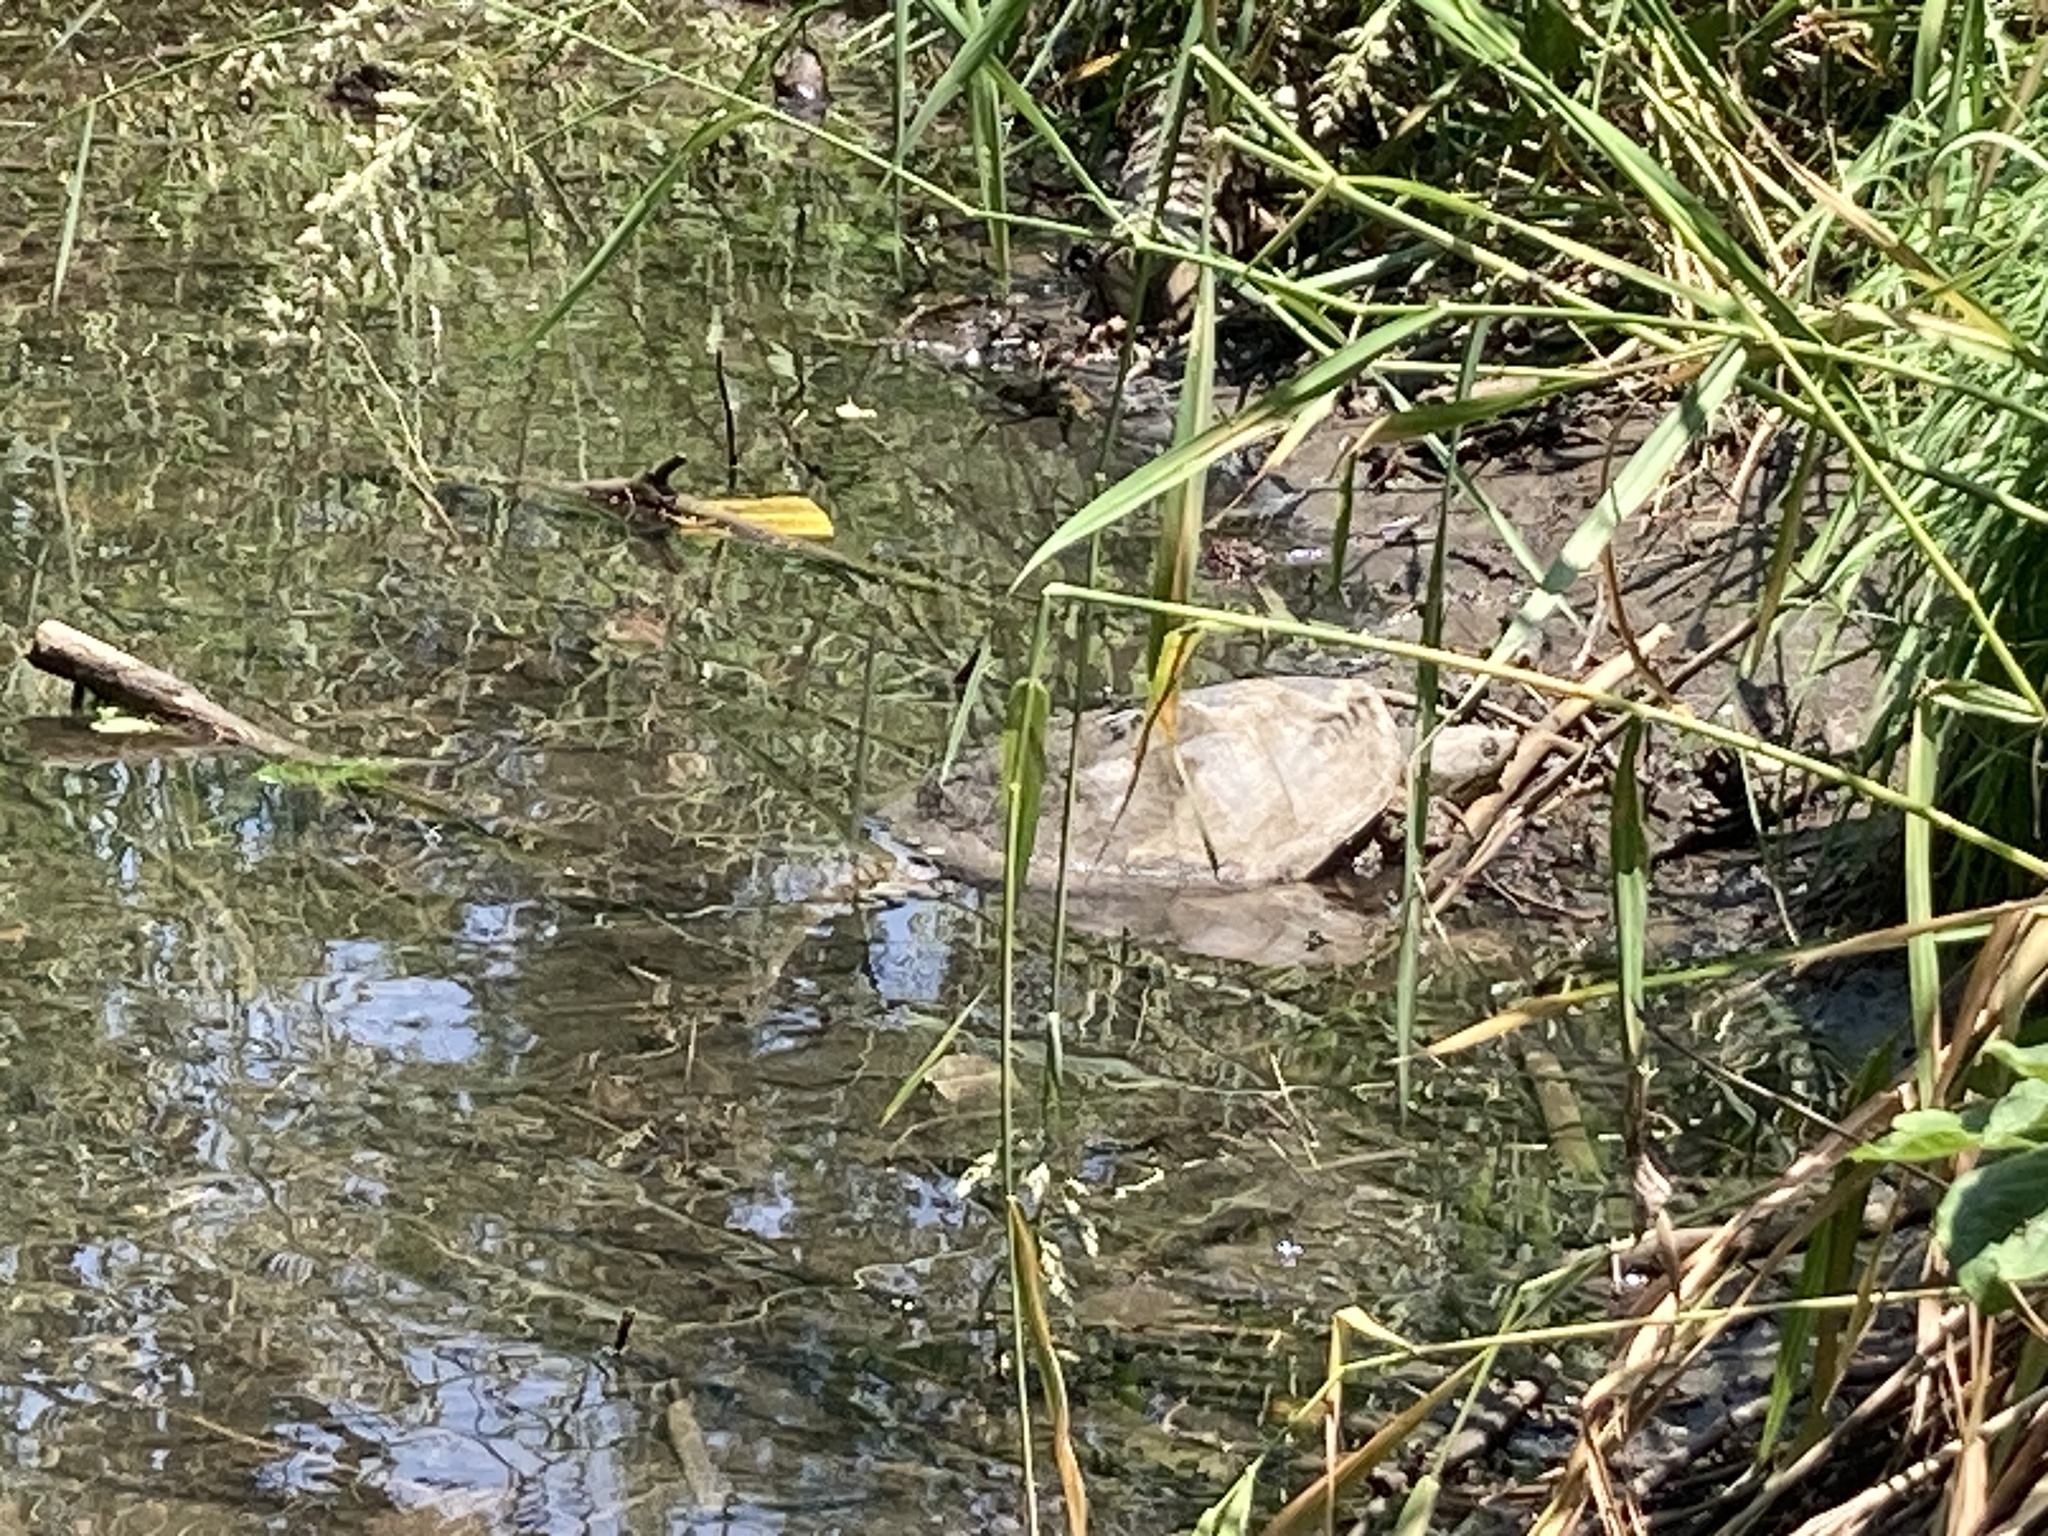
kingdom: Animalia
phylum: Chordata
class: Testudines
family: Chelydridae
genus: Chelydra
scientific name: Chelydra serpentina
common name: Common snapping turtle
